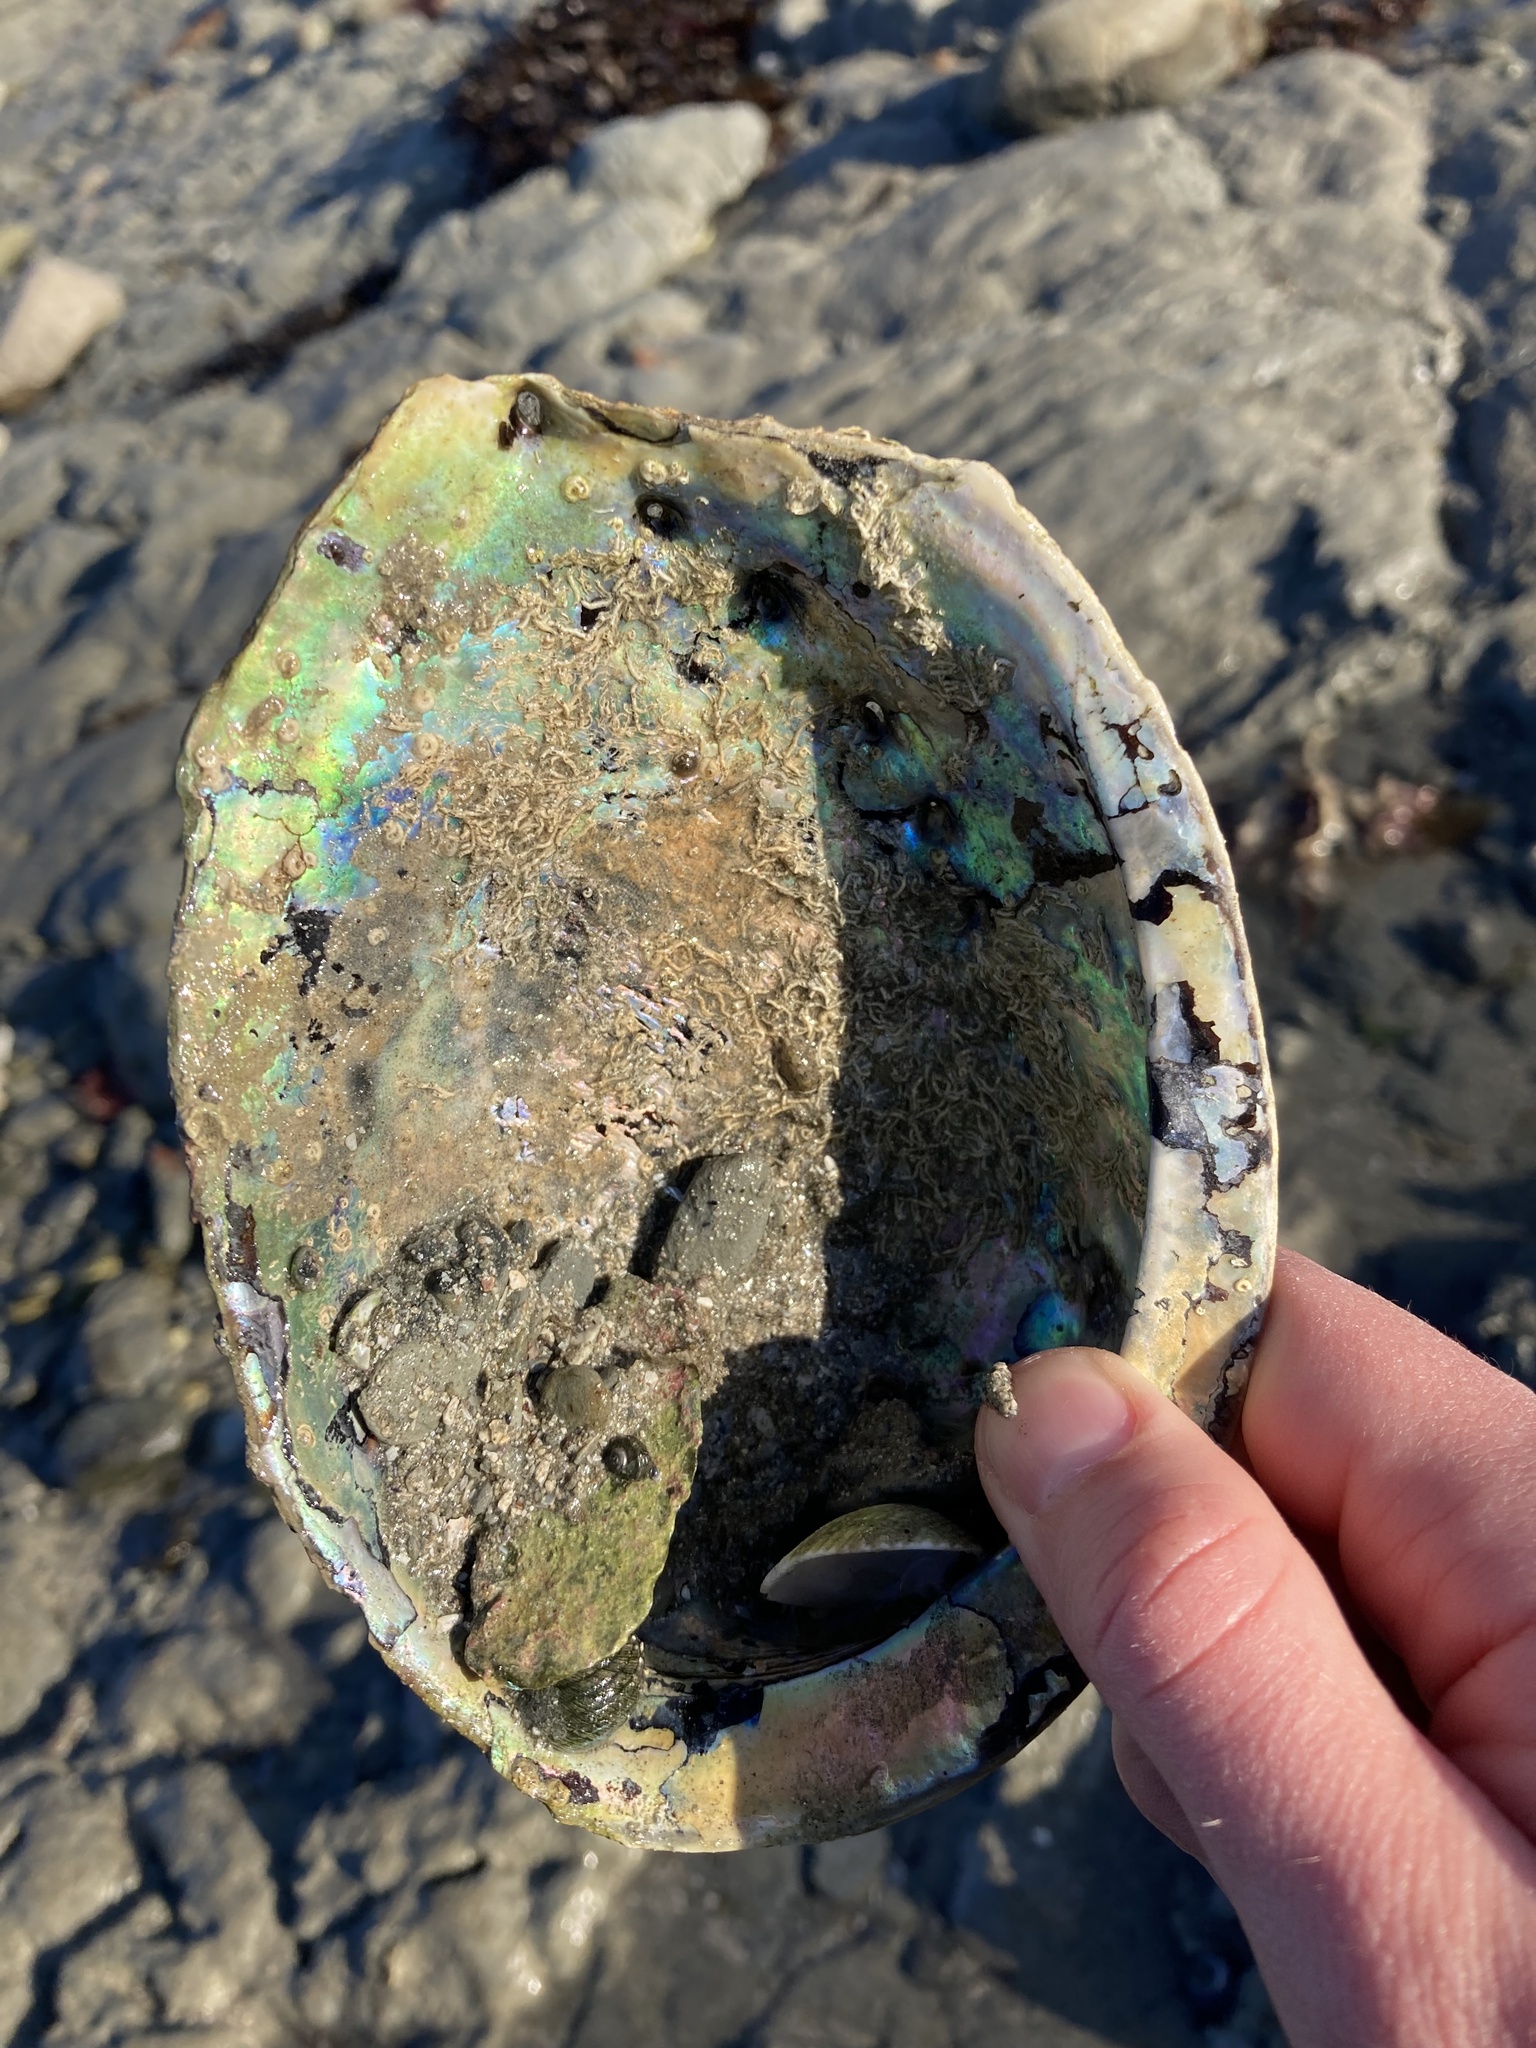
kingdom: Animalia
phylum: Mollusca
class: Gastropoda
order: Lepetellida
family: Haliotidae
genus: Haliotis
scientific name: Haliotis iris
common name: Abalone
